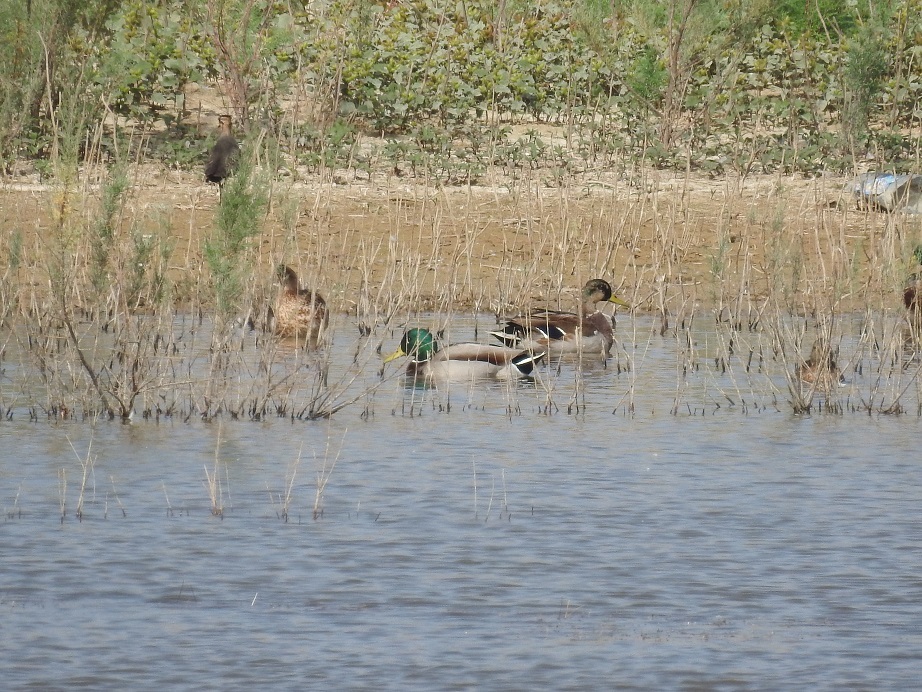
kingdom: Animalia
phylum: Chordata
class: Aves
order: Anseriformes
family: Anatidae
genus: Anas
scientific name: Anas platyrhynchos
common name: Mallard
